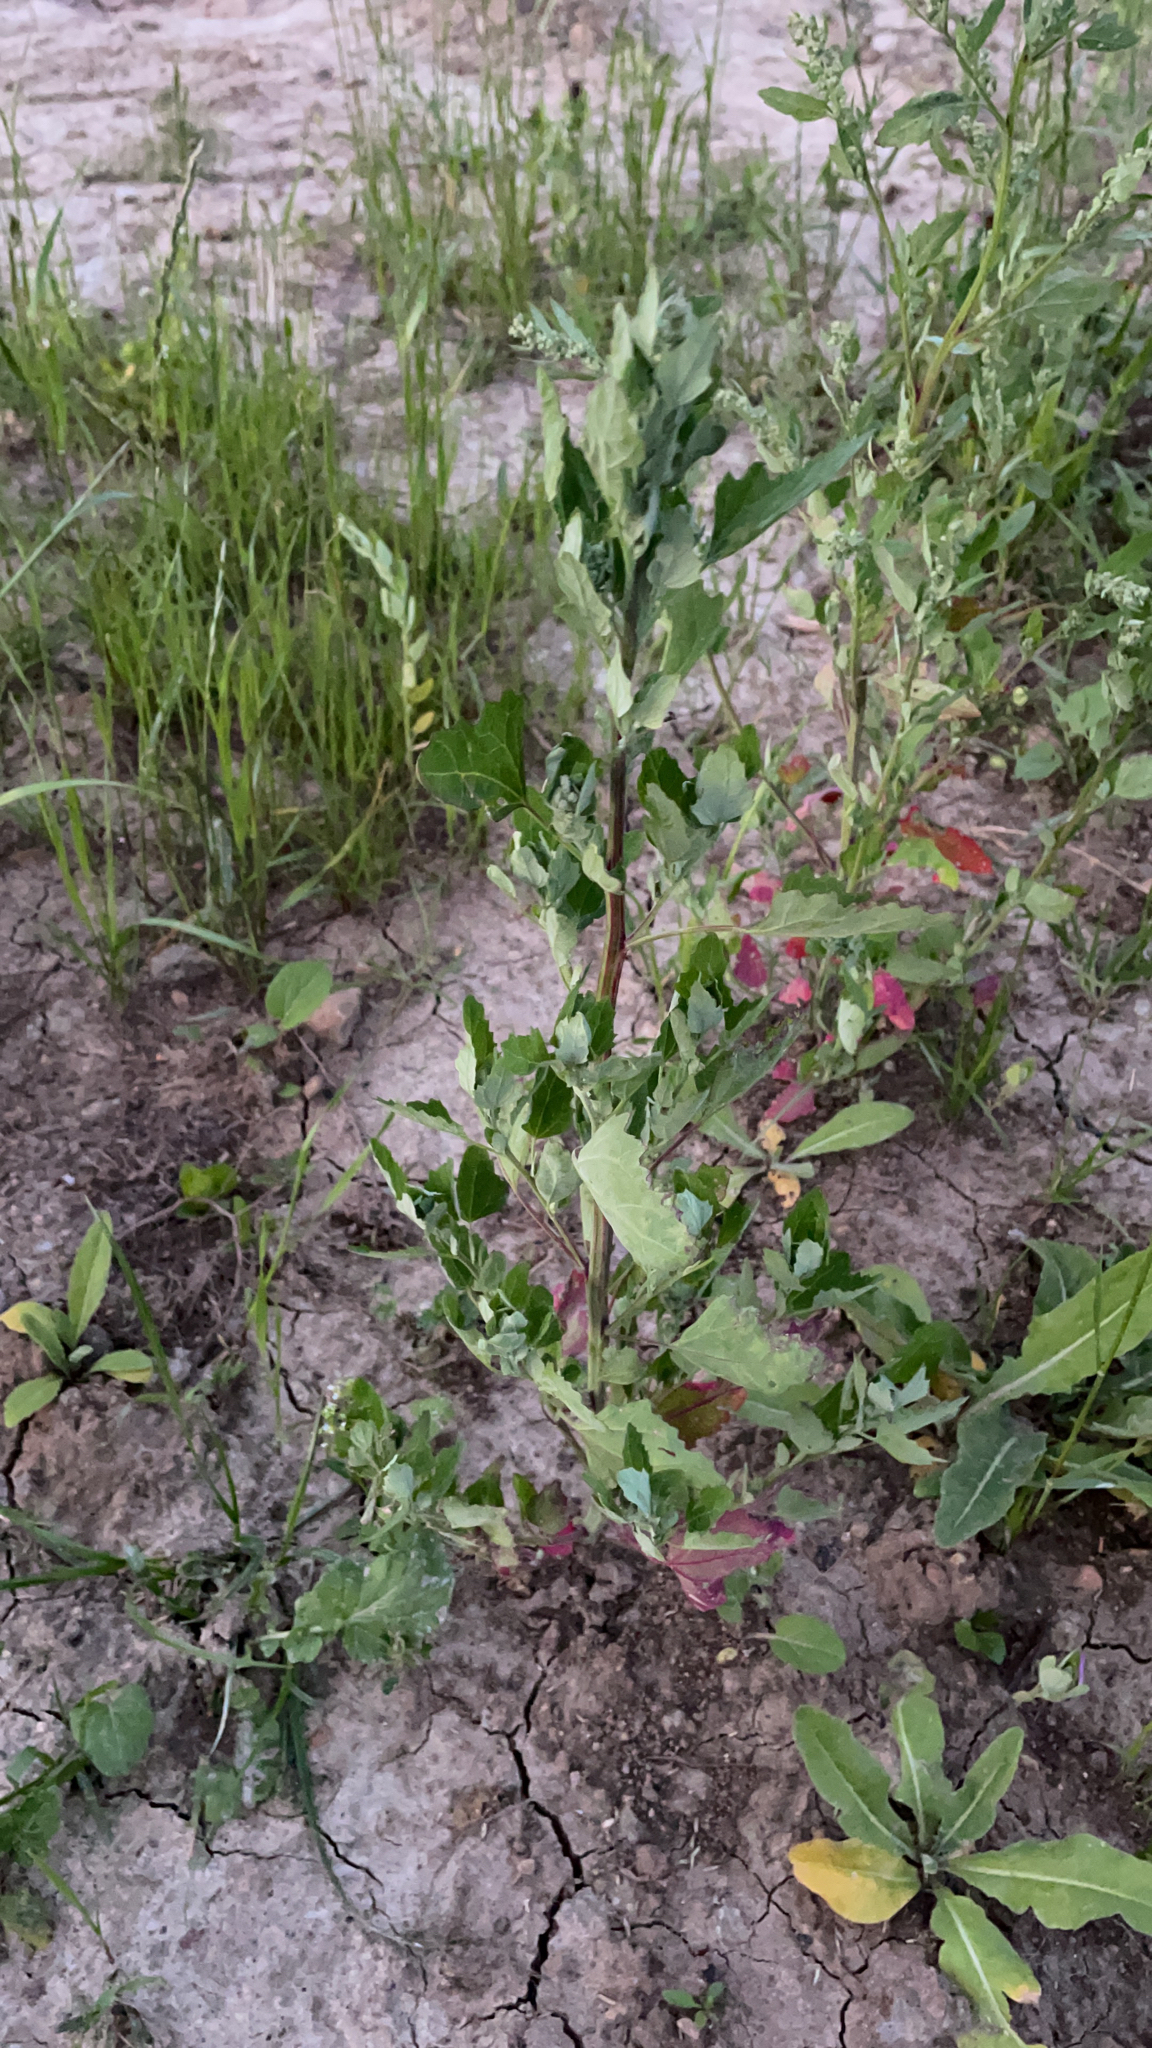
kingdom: Plantae
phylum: Tracheophyta
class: Magnoliopsida
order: Caryophyllales
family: Amaranthaceae
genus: Chenopodium
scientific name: Chenopodium album
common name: Fat-hen
